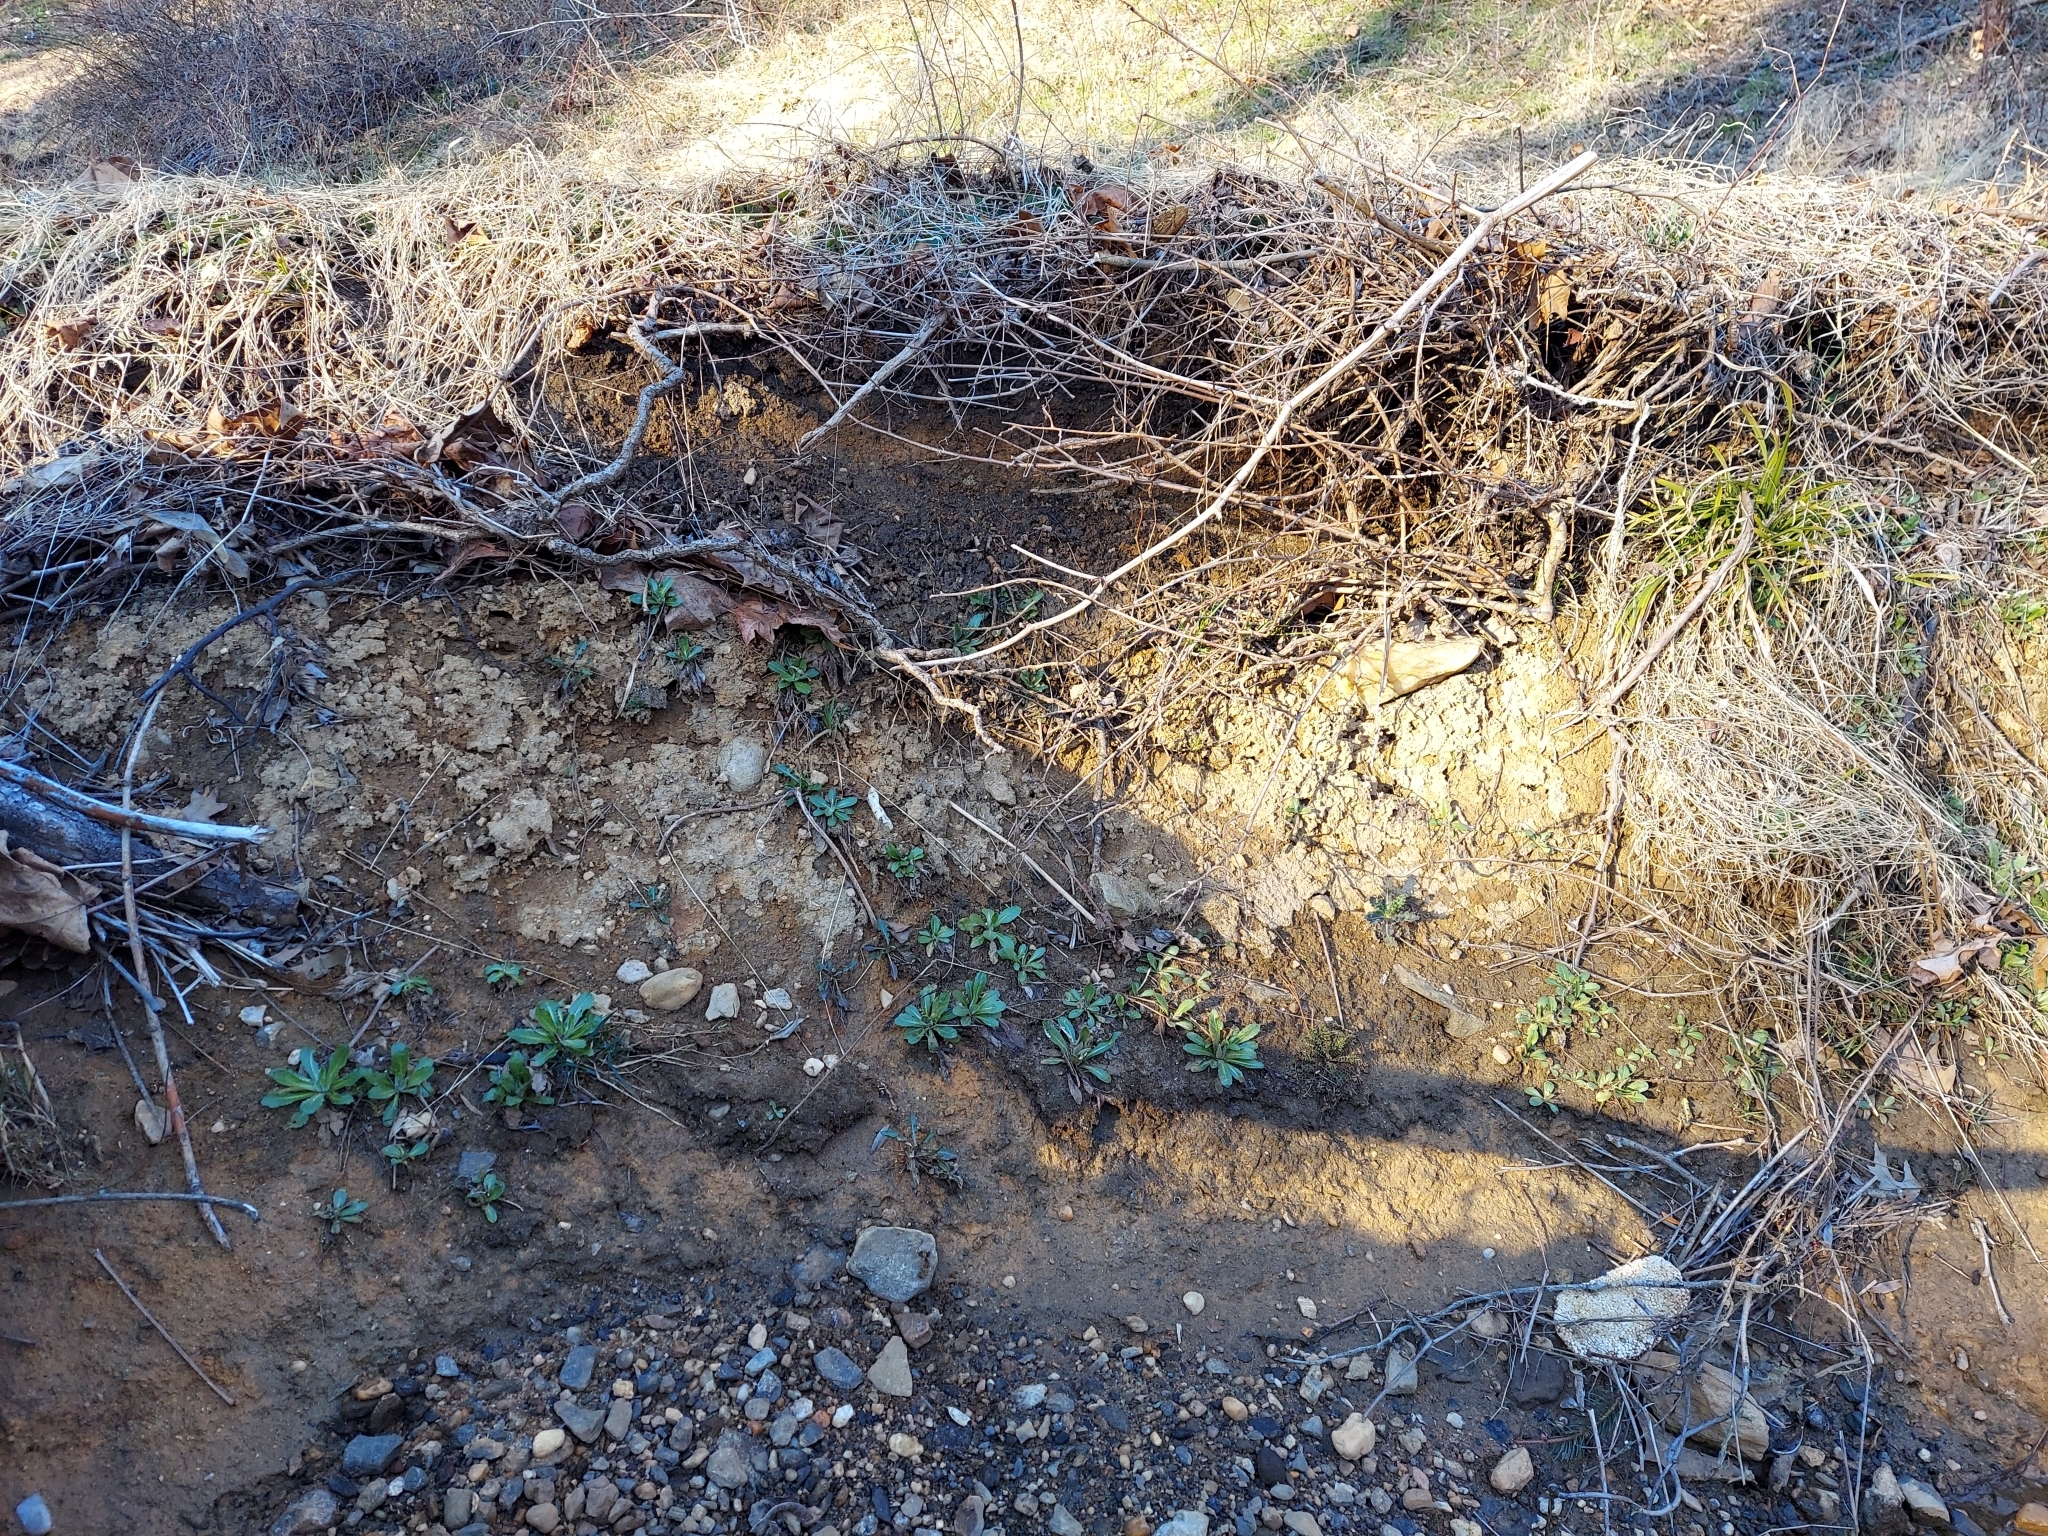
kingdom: Plantae
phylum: Tracheophyta
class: Magnoliopsida
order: Asterales
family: Asteraceae
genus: Hypochaeris
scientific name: Hypochaeris radicata
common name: Flatweed
